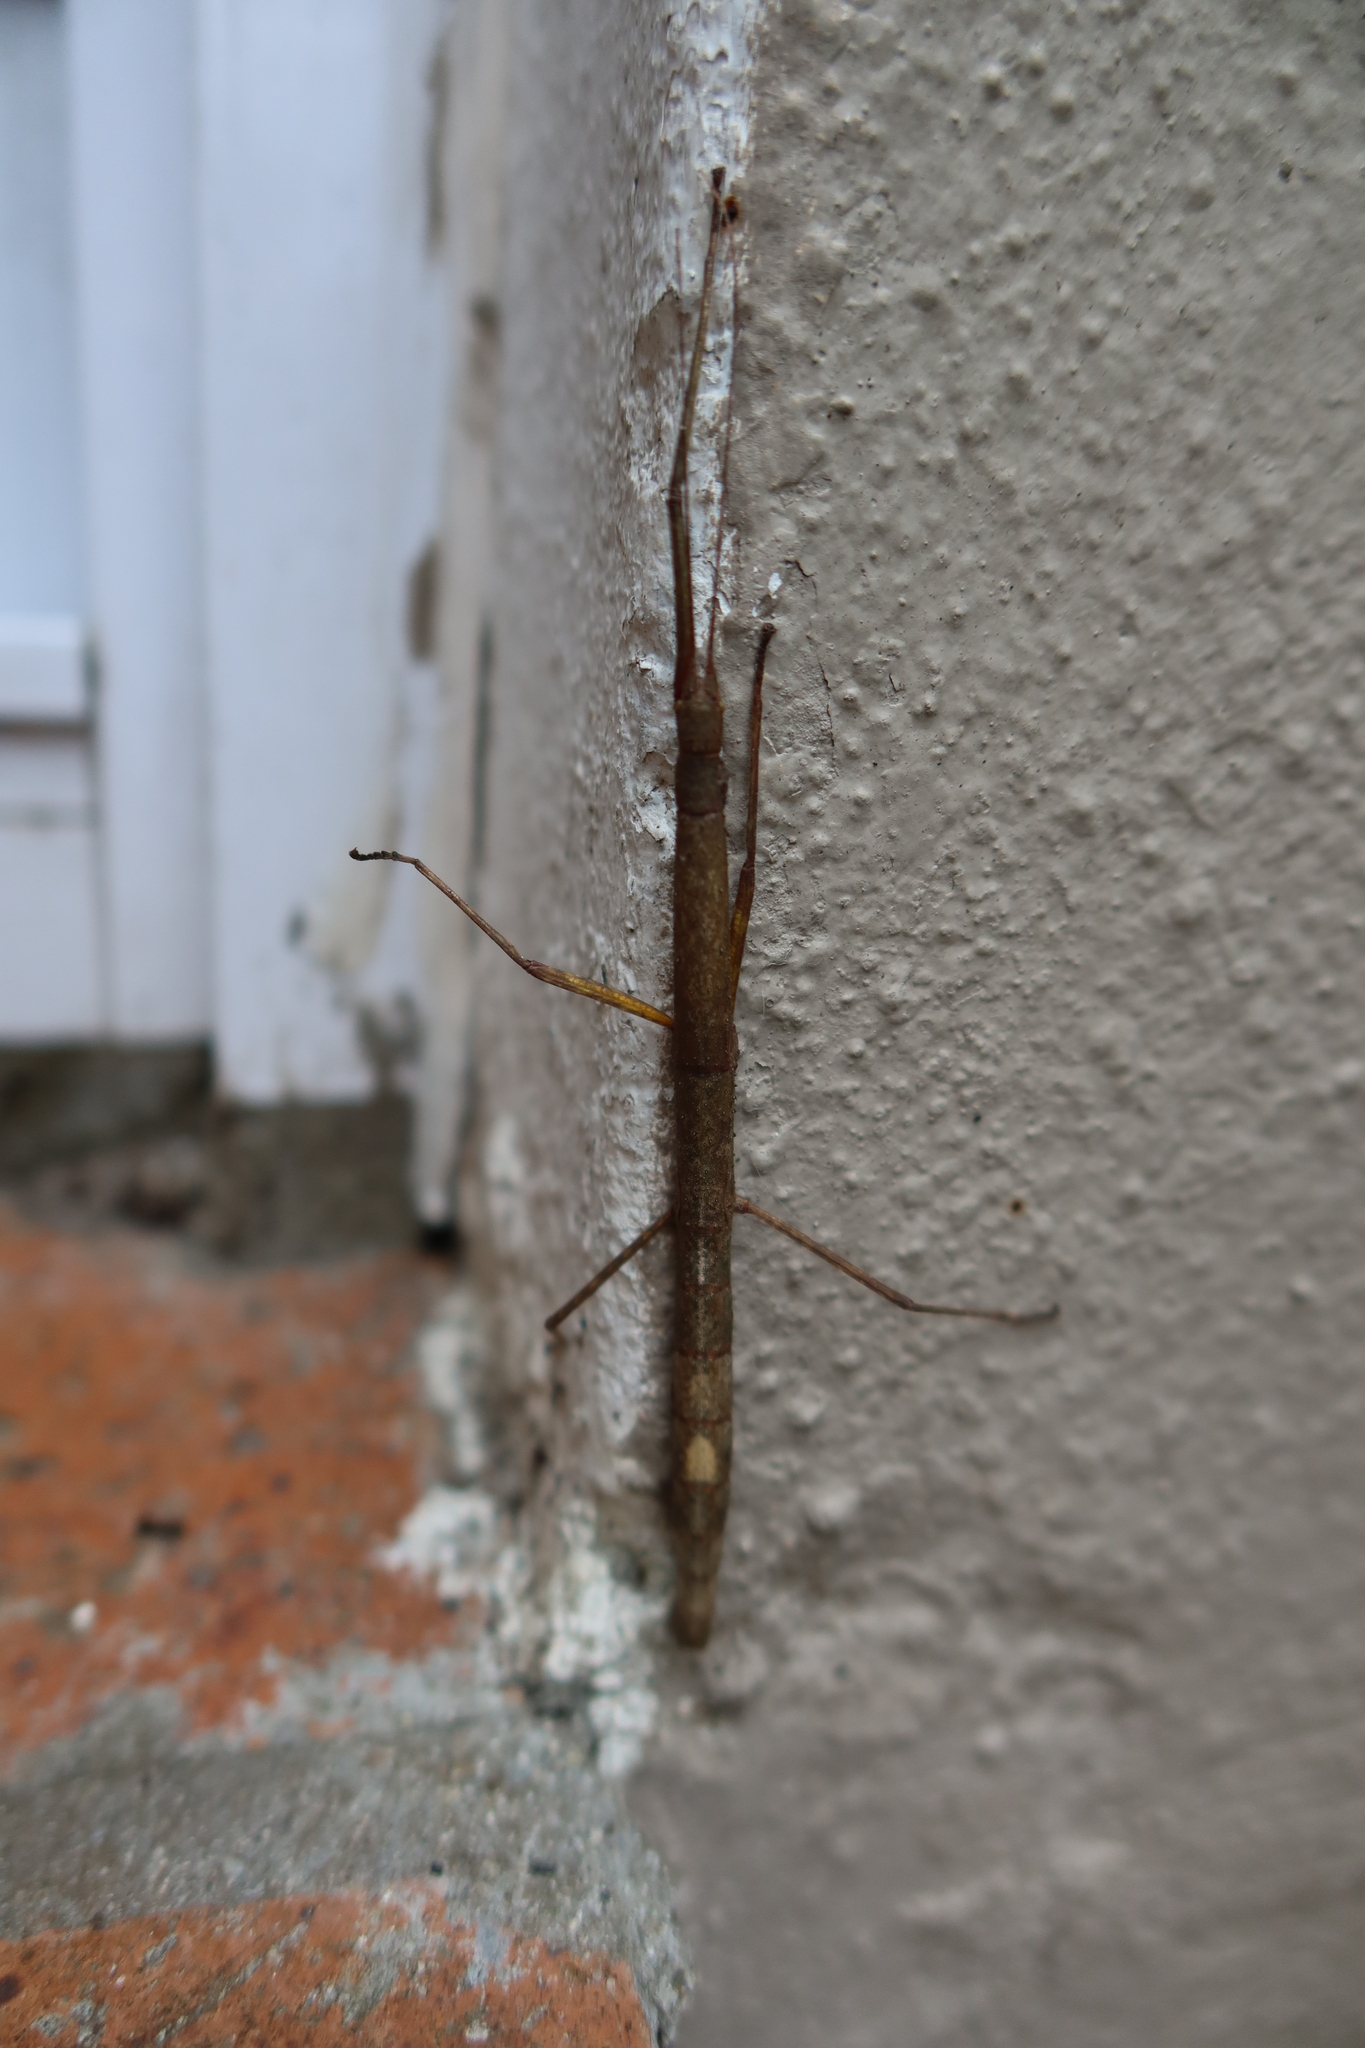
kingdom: Animalia
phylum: Arthropoda
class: Insecta
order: Phasmida
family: Lonchodidae
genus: Carausius
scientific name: Carausius morosus
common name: Indian stick insect
